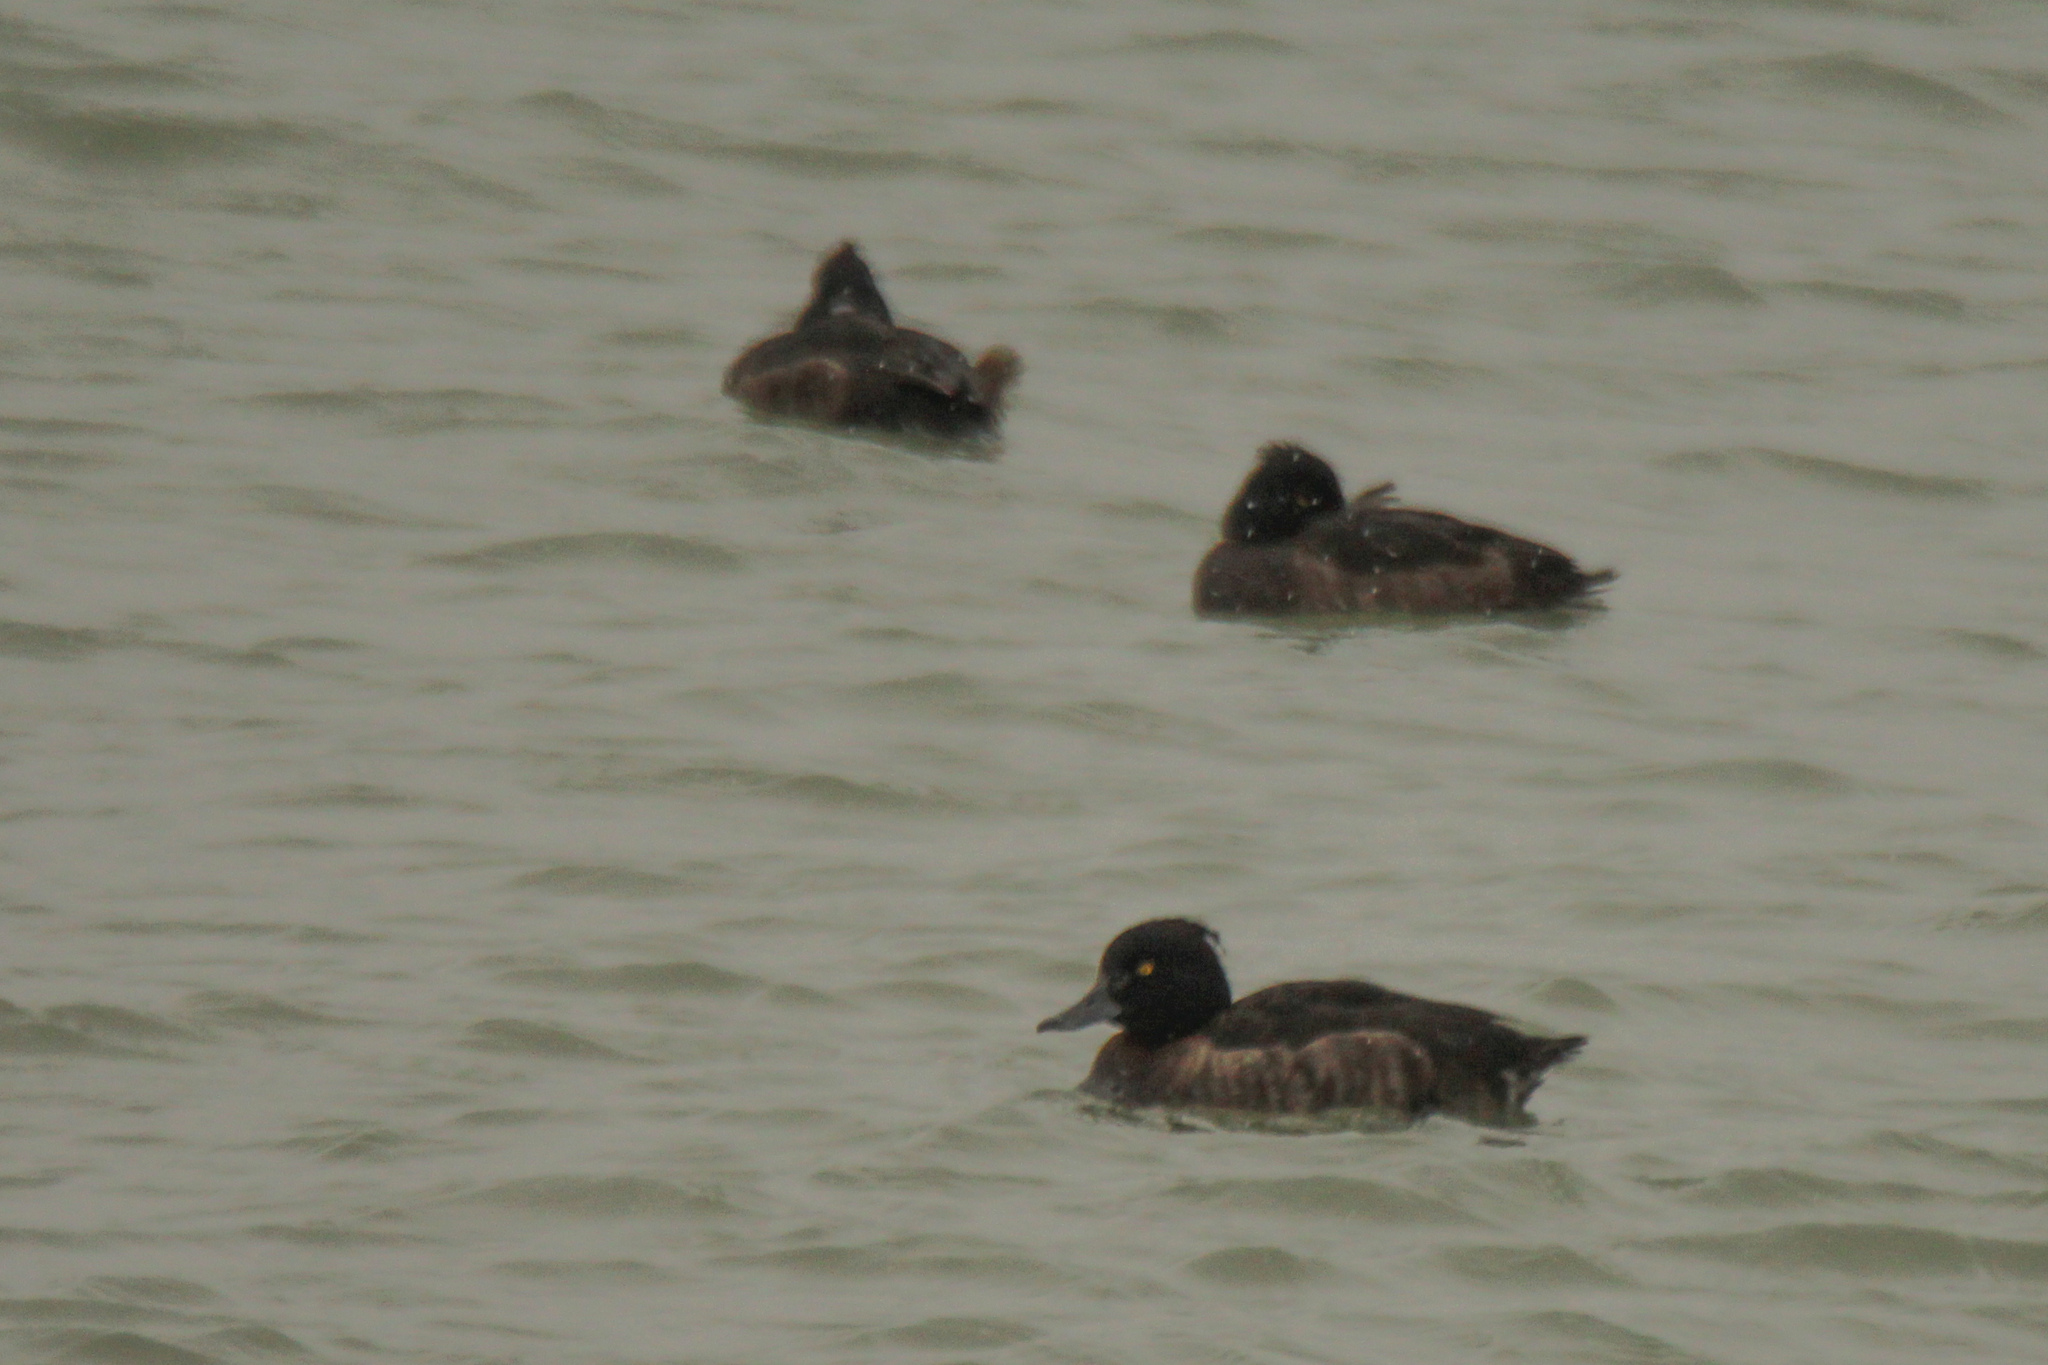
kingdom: Animalia
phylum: Chordata
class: Aves
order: Anseriformes
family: Anatidae
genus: Aythya
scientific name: Aythya fuligula
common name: Tufted duck
